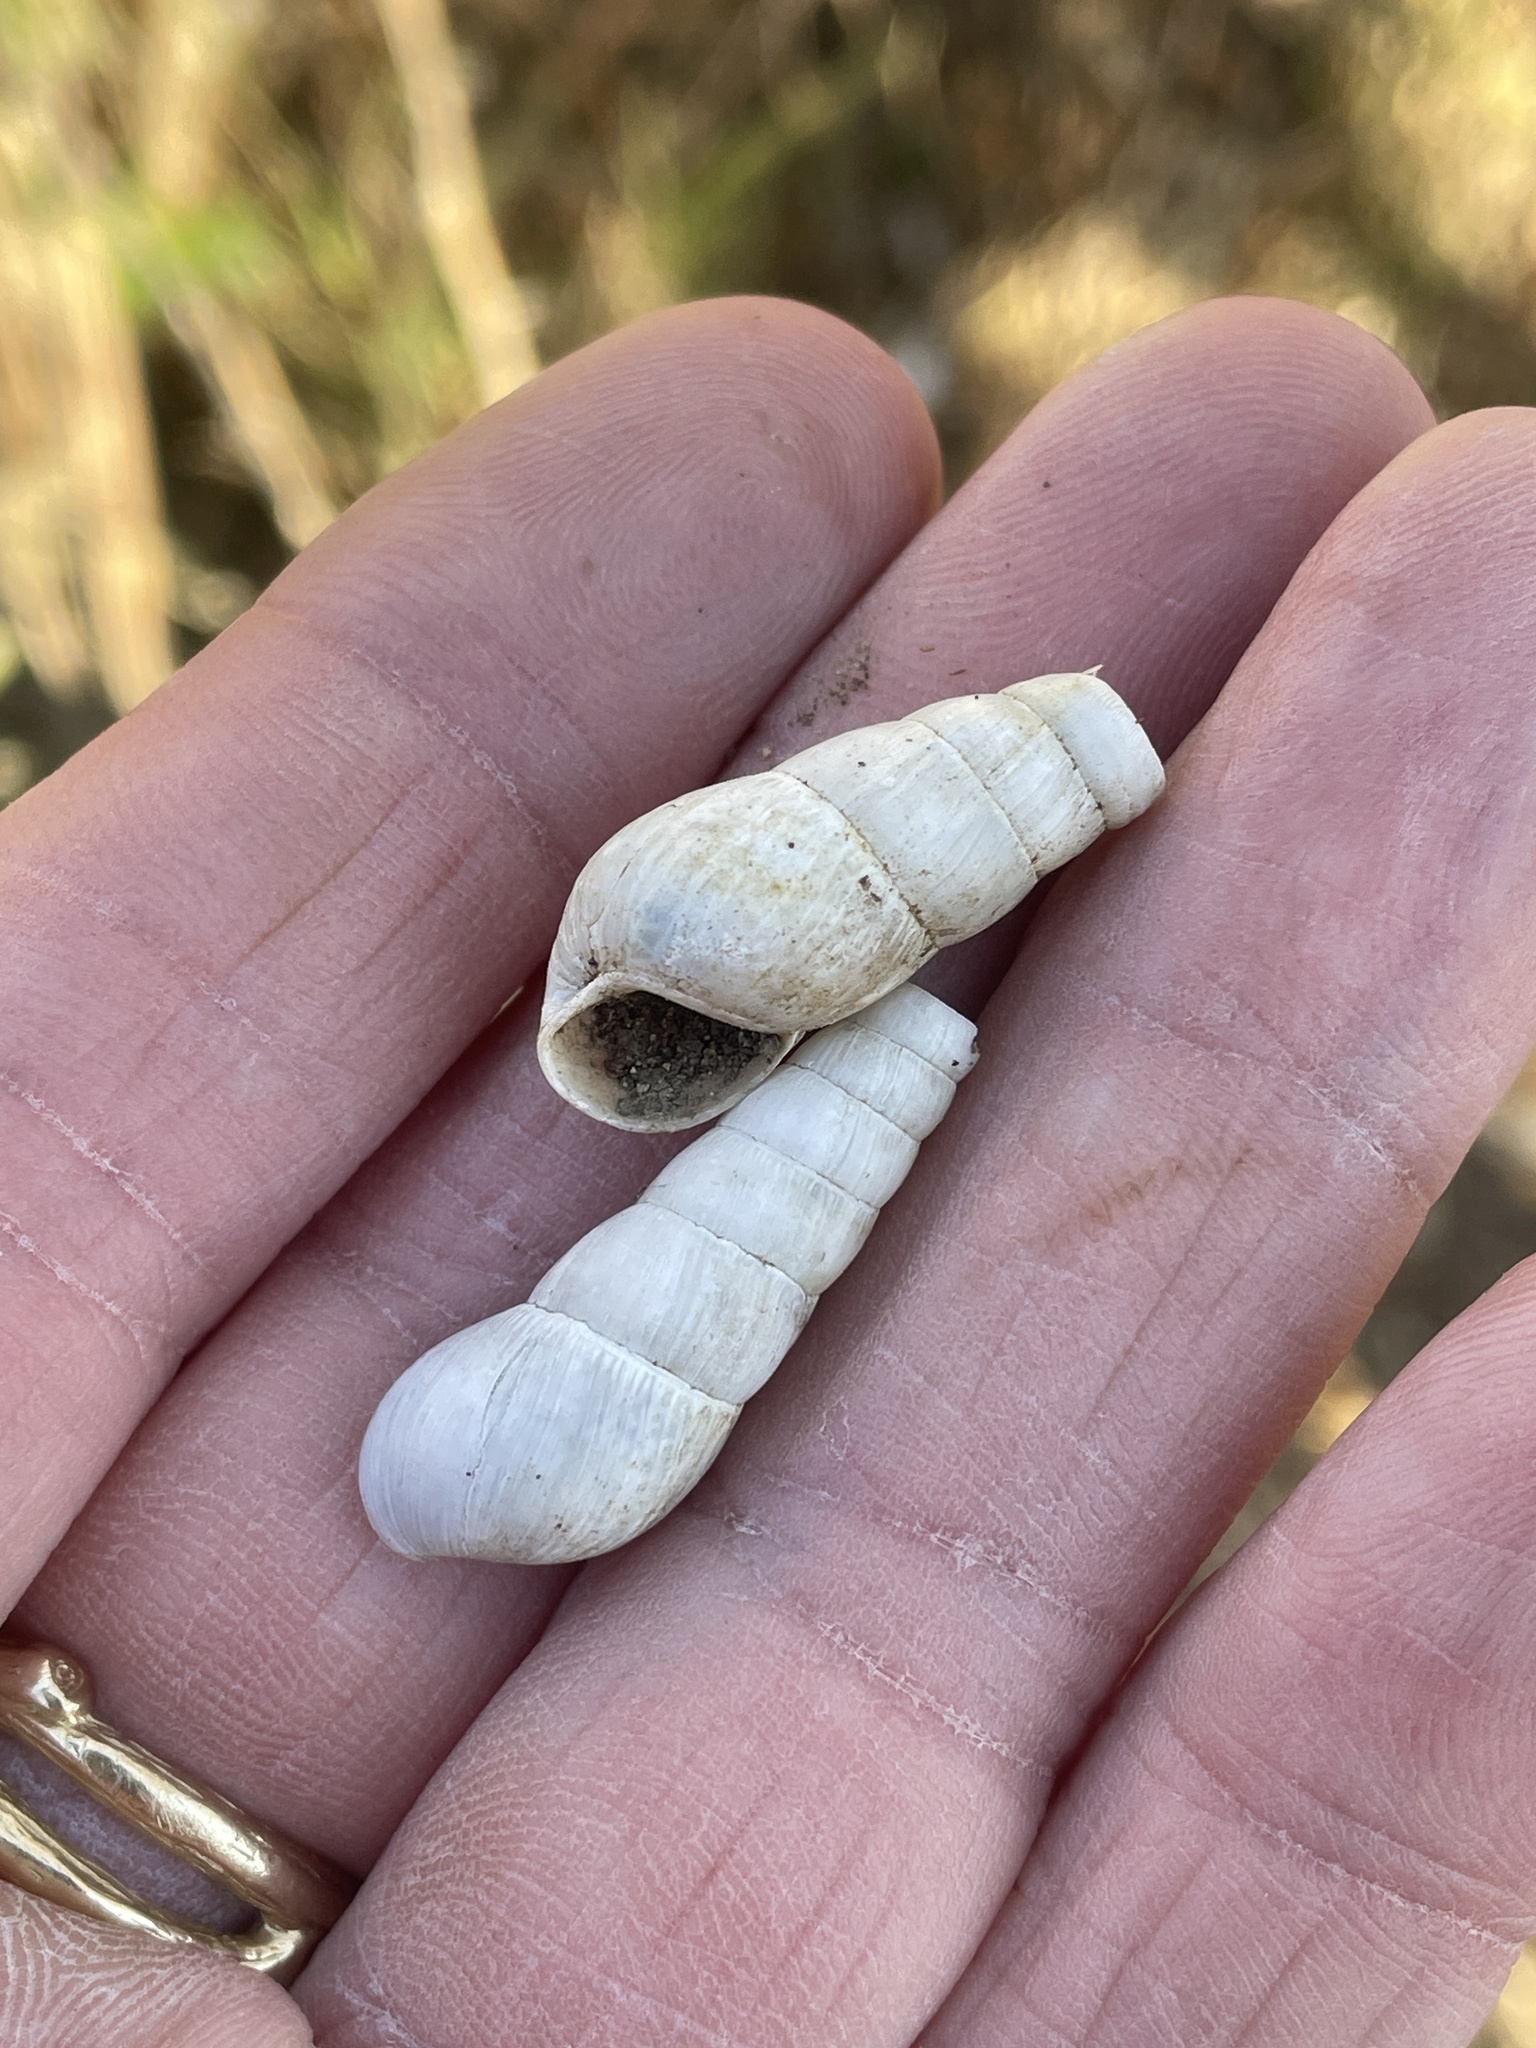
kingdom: Animalia
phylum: Mollusca
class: Gastropoda
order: Stylommatophora
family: Achatinidae
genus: Rumina
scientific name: Rumina decollata
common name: Decollate snail
